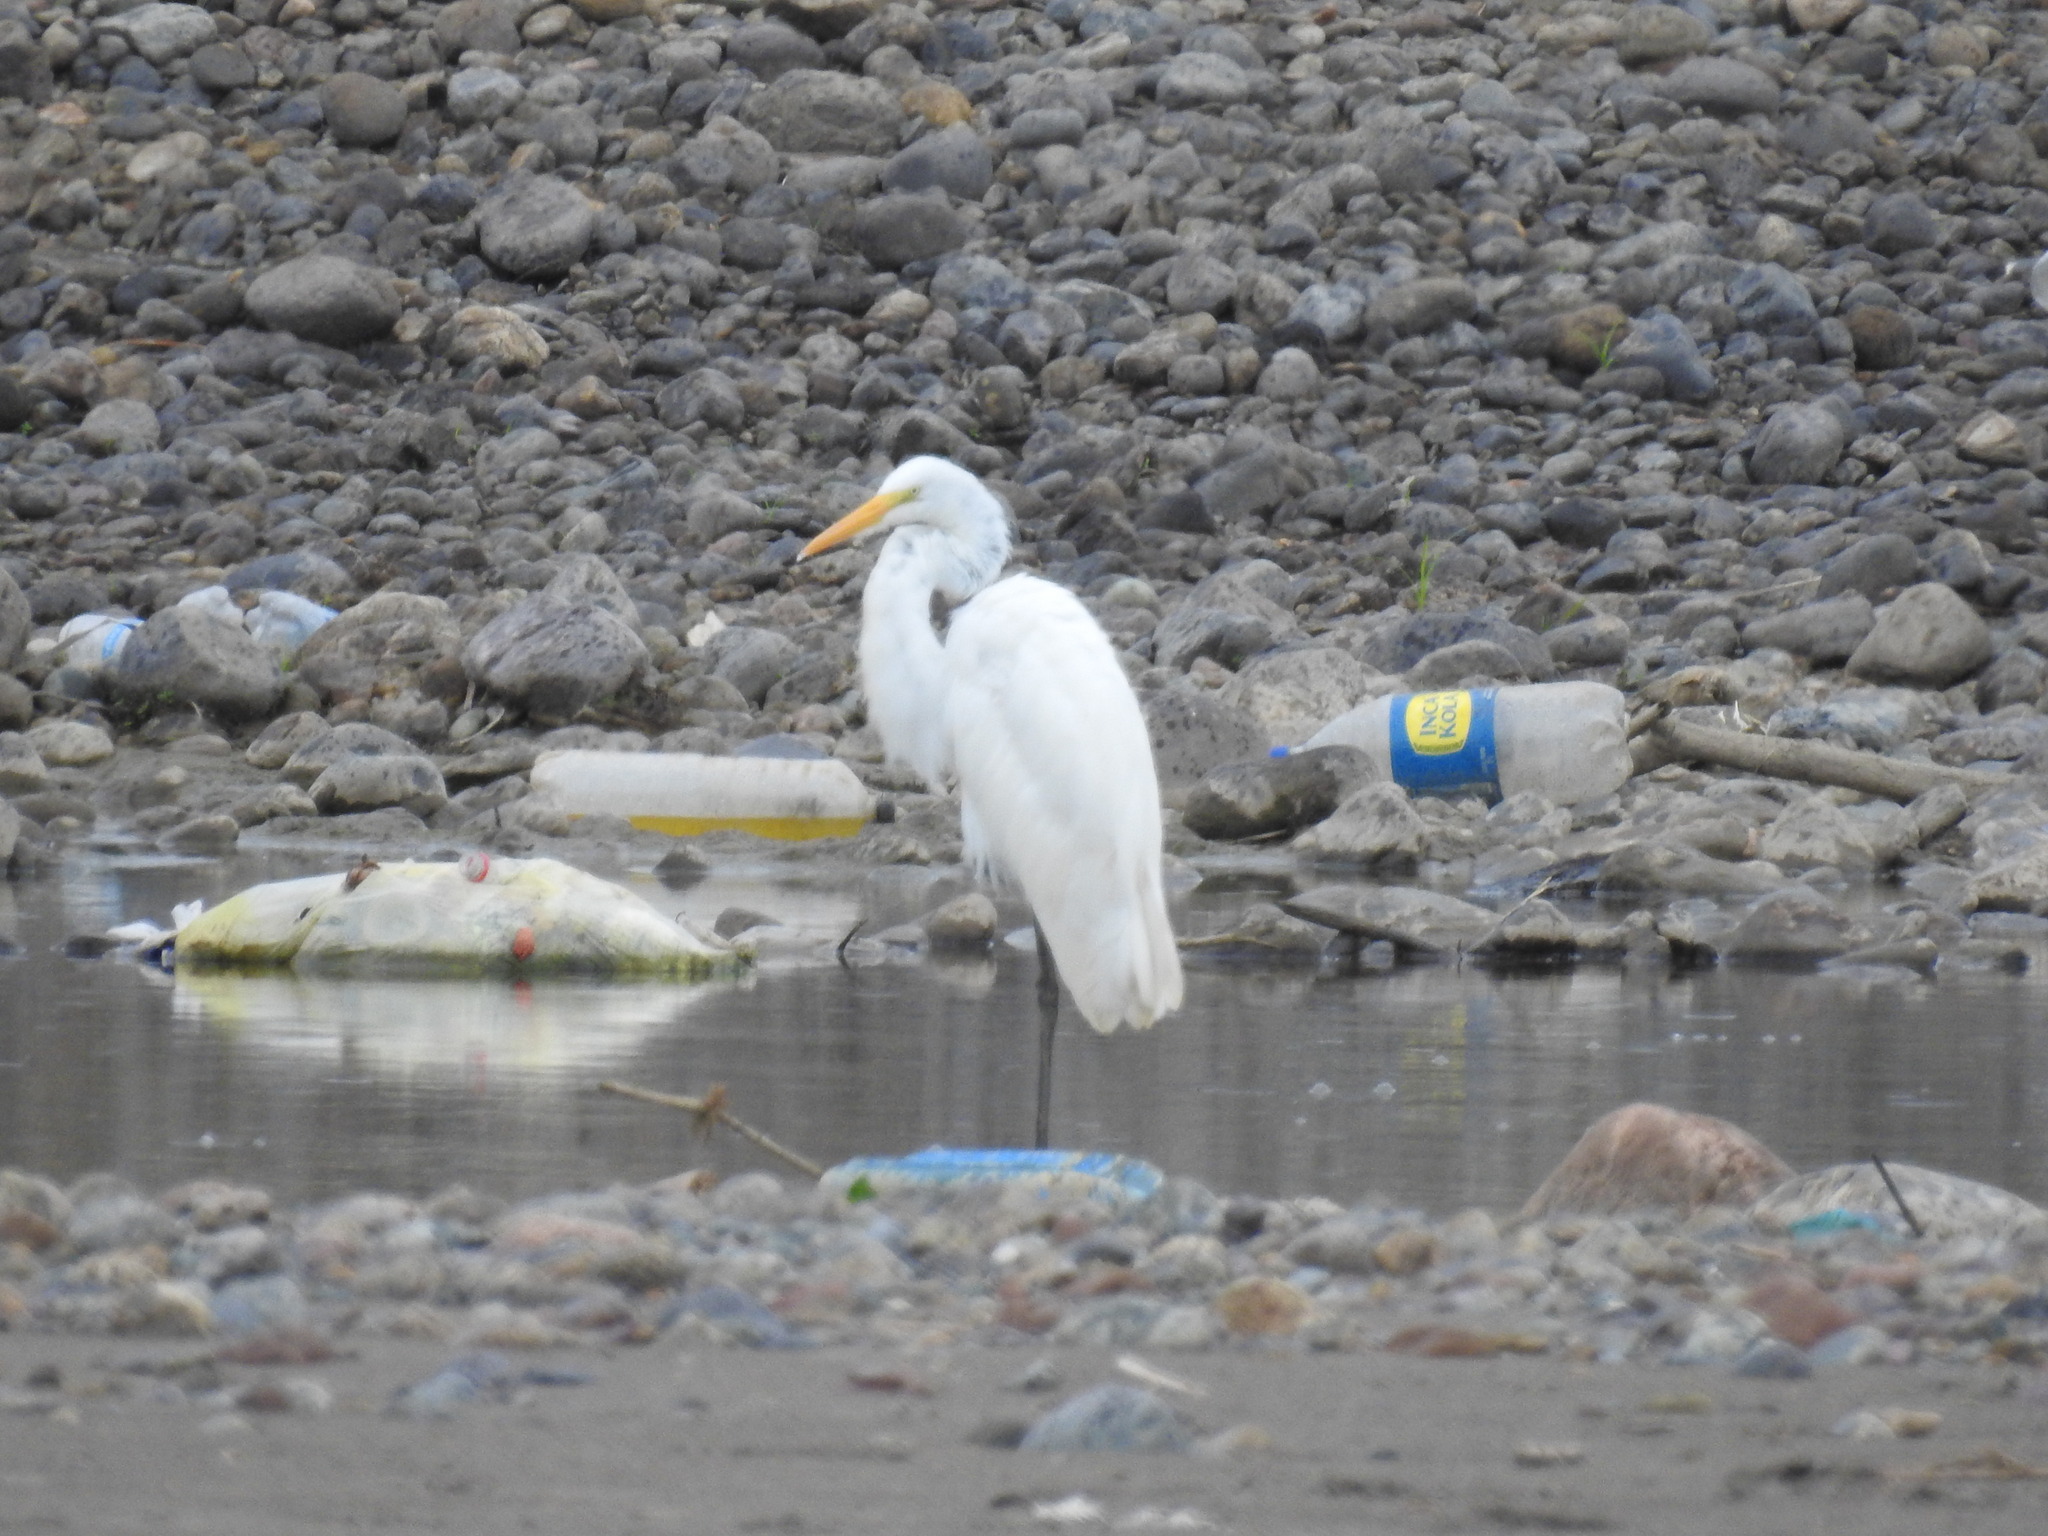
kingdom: Animalia
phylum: Chordata
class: Aves
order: Pelecaniformes
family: Ardeidae
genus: Ardea
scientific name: Ardea alba
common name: Great egret
